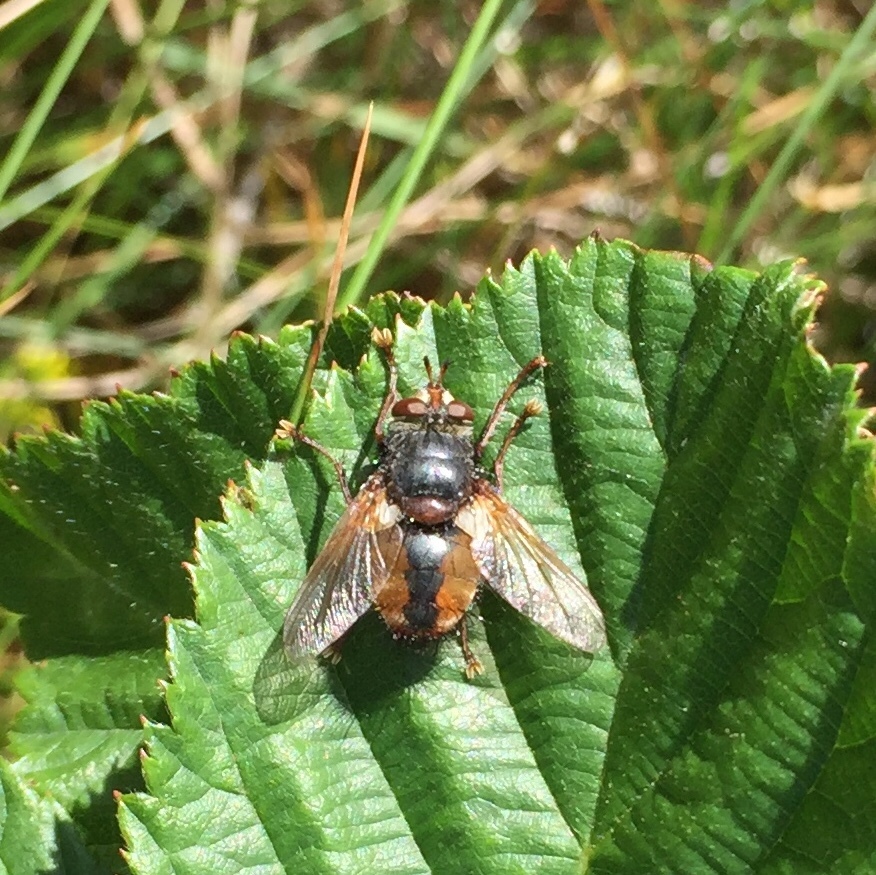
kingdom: Animalia
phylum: Arthropoda
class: Insecta
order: Diptera
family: Tachinidae
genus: Tachina
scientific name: Tachina fera
